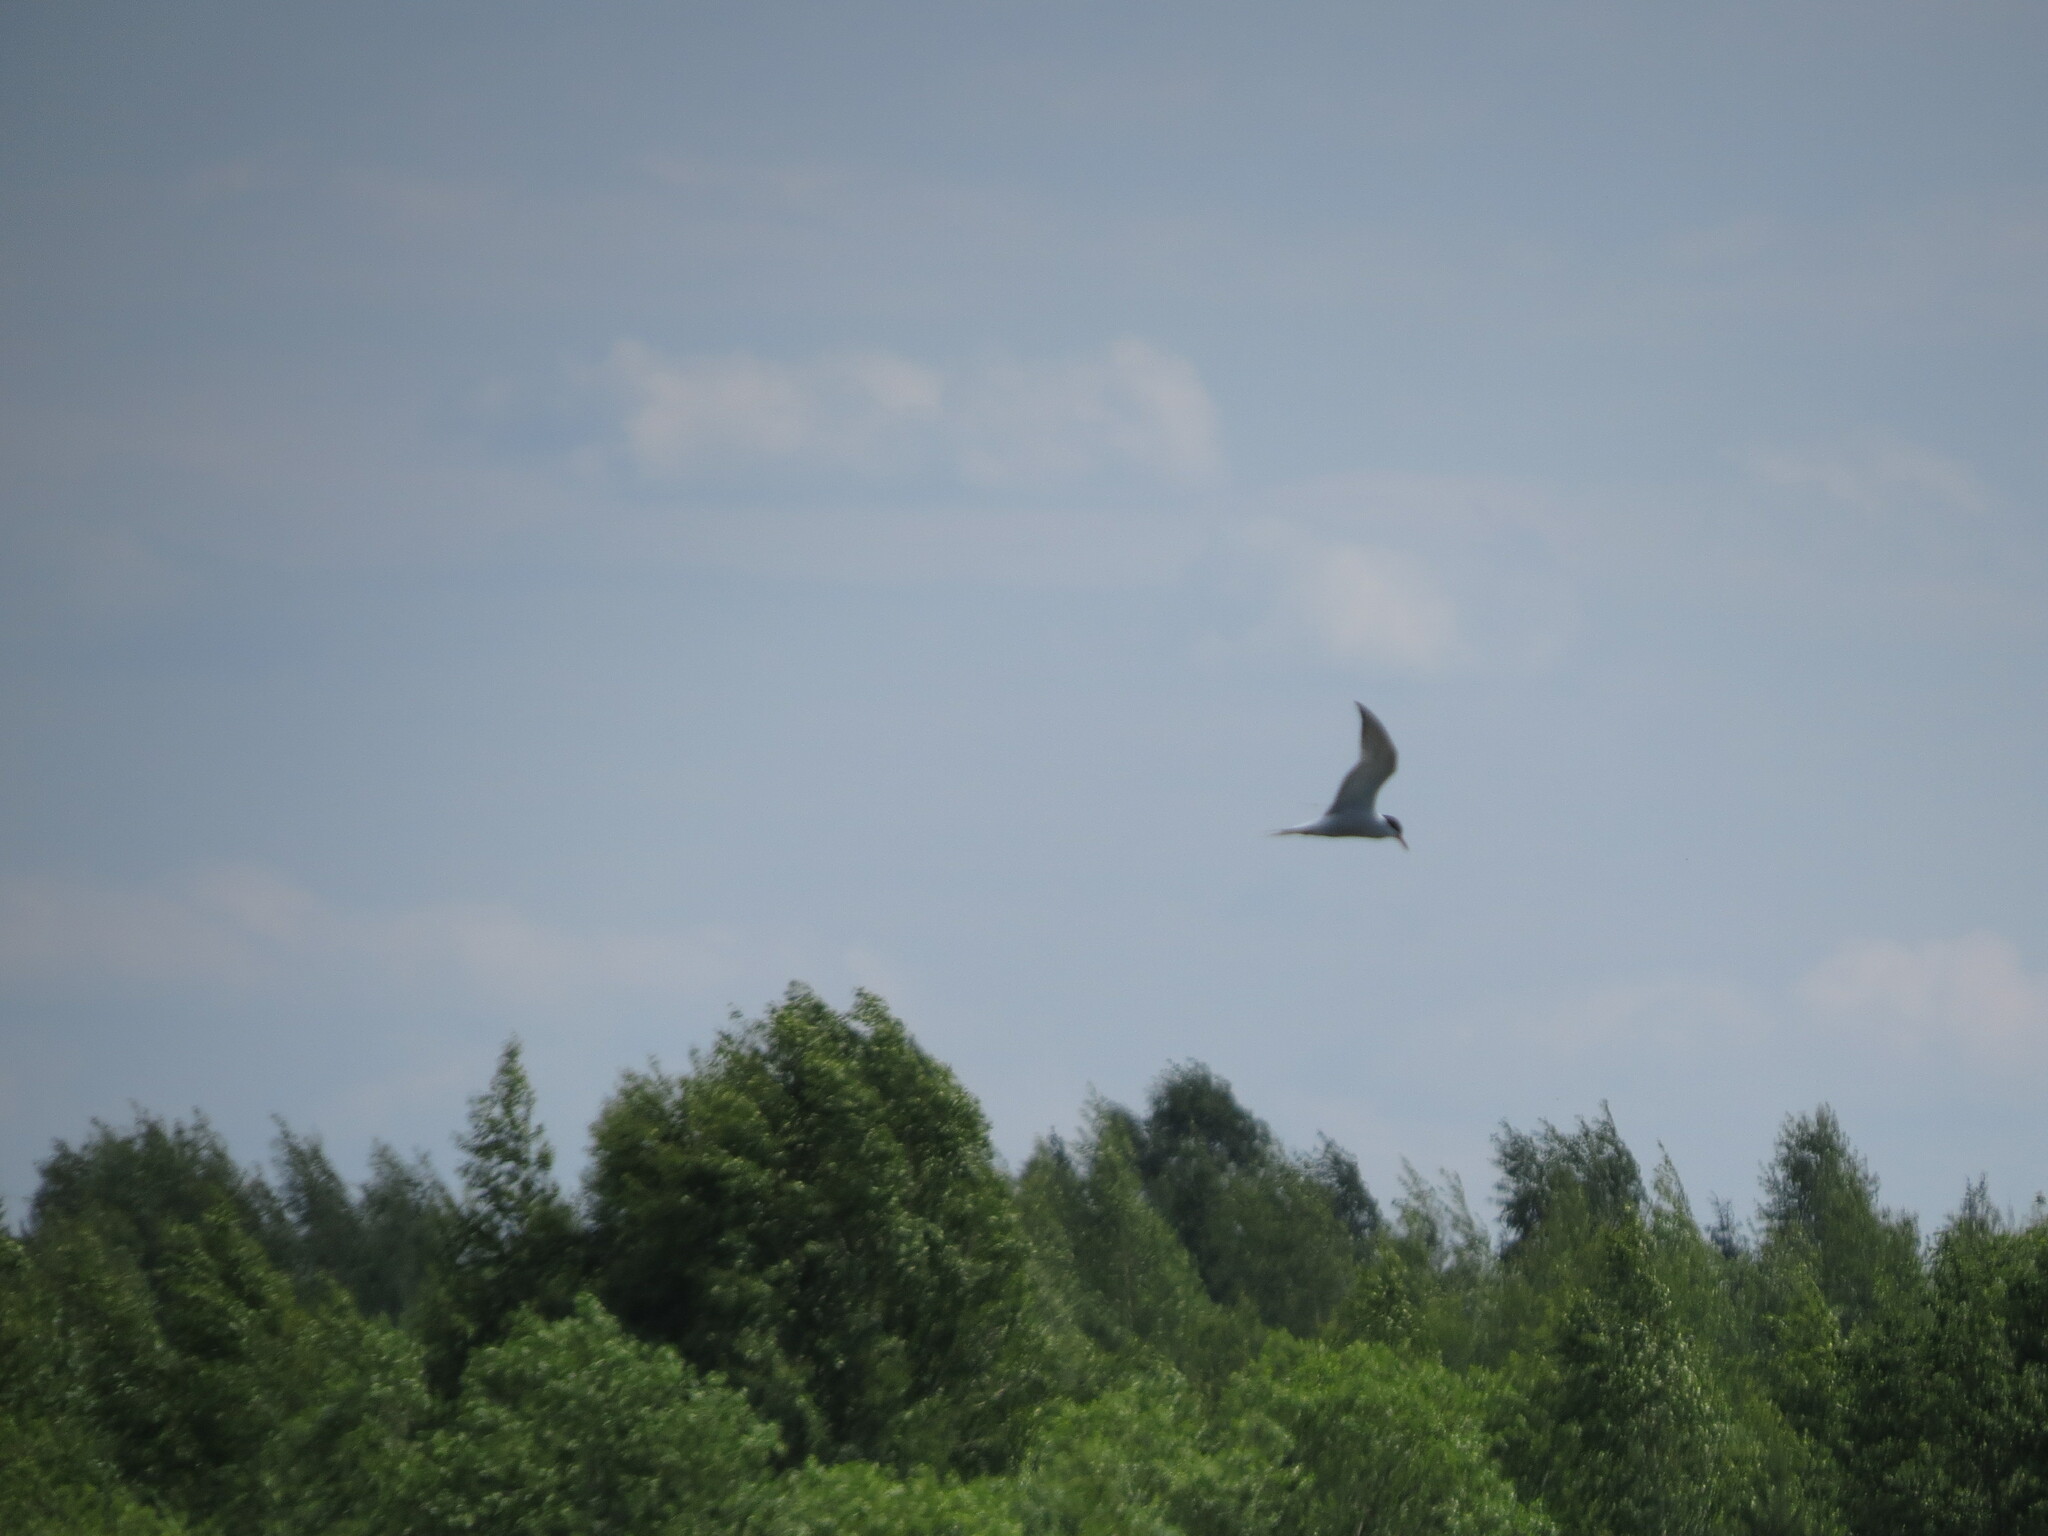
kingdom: Animalia
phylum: Chordata
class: Aves
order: Charadriiformes
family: Laridae
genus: Sterna
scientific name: Sterna hirundo
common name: Common tern
